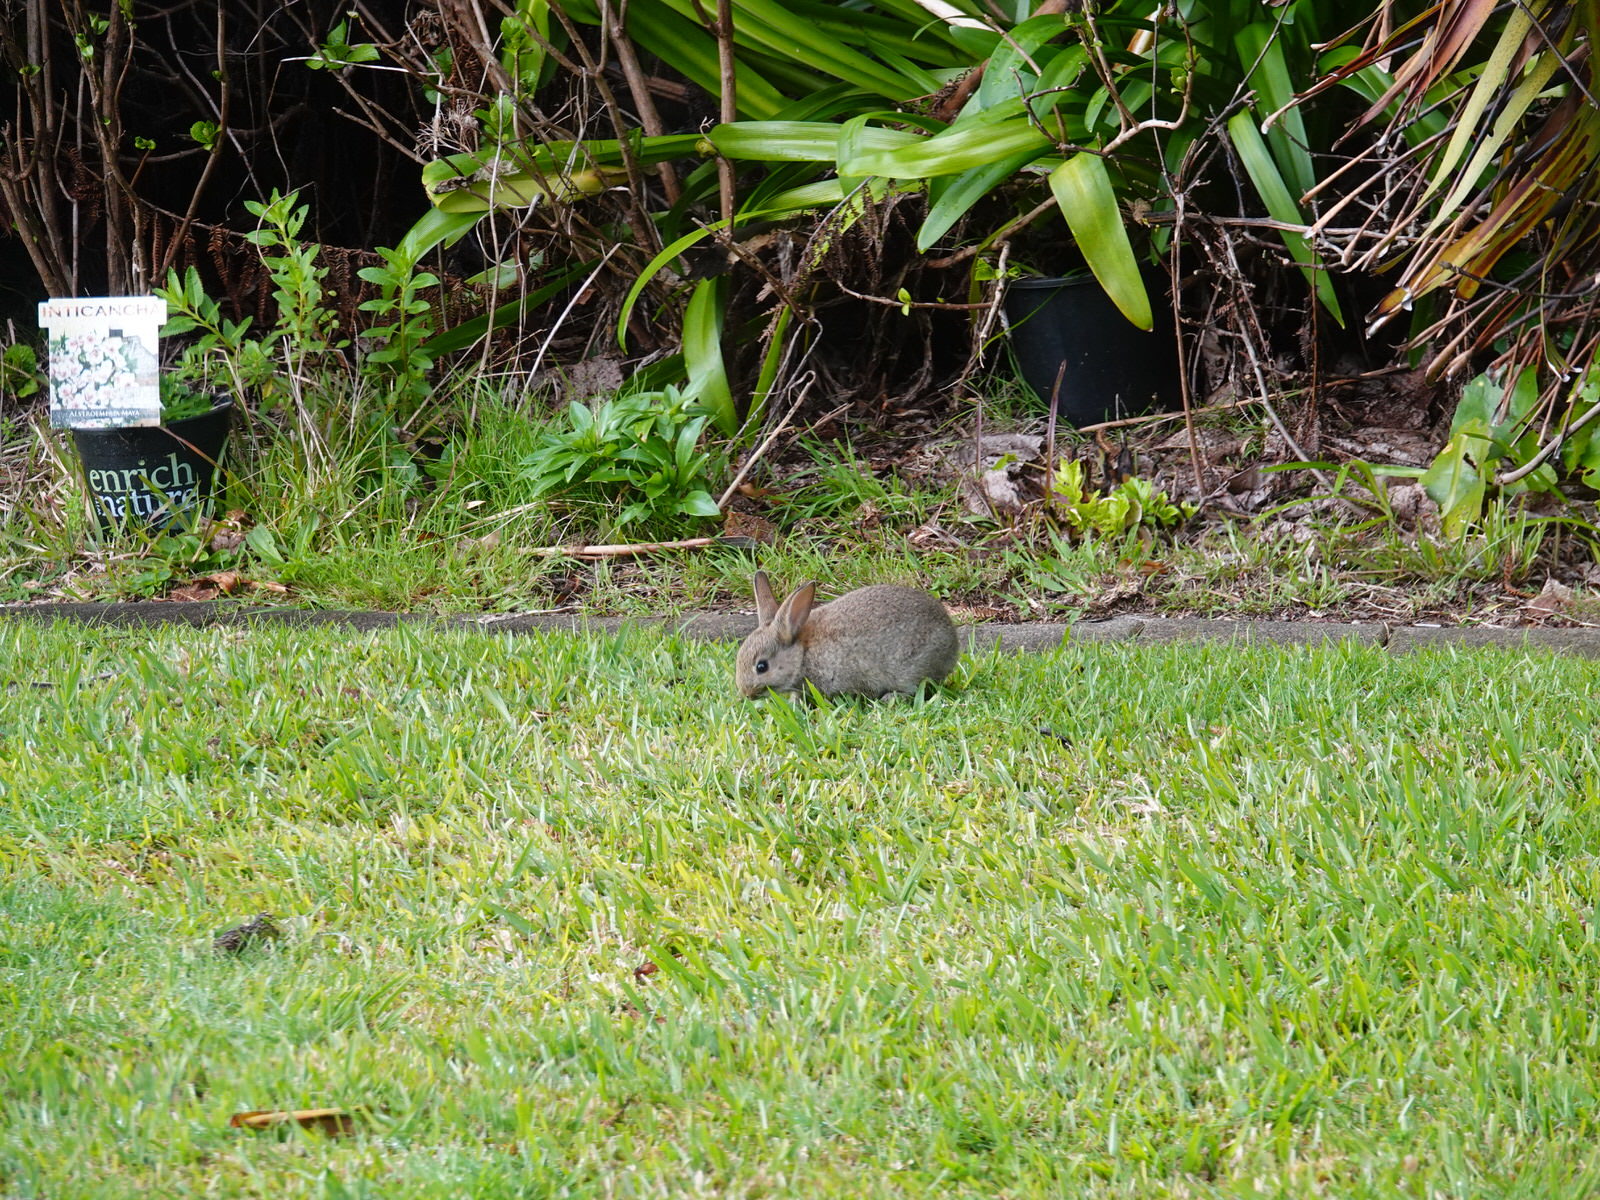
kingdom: Animalia
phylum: Chordata
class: Mammalia
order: Lagomorpha
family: Leporidae
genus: Oryctolagus
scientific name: Oryctolagus cuniculus
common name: European rabbit
